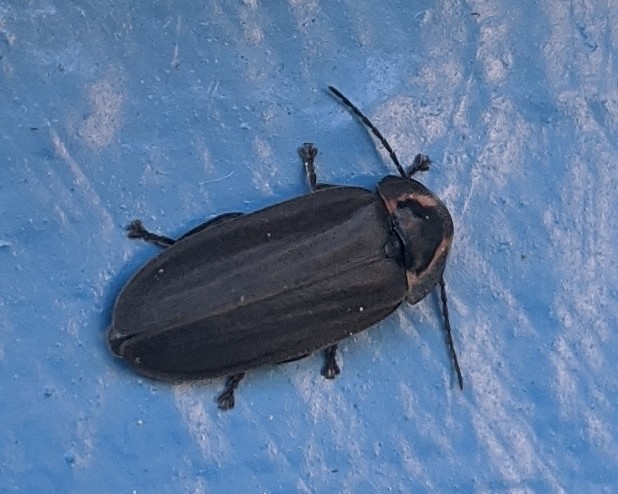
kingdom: Animalia
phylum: Arthropoda
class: Insecta
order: Coleoptera
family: Lampyridae
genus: Photinus
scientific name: Photinus corrusca
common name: Winter firefly
